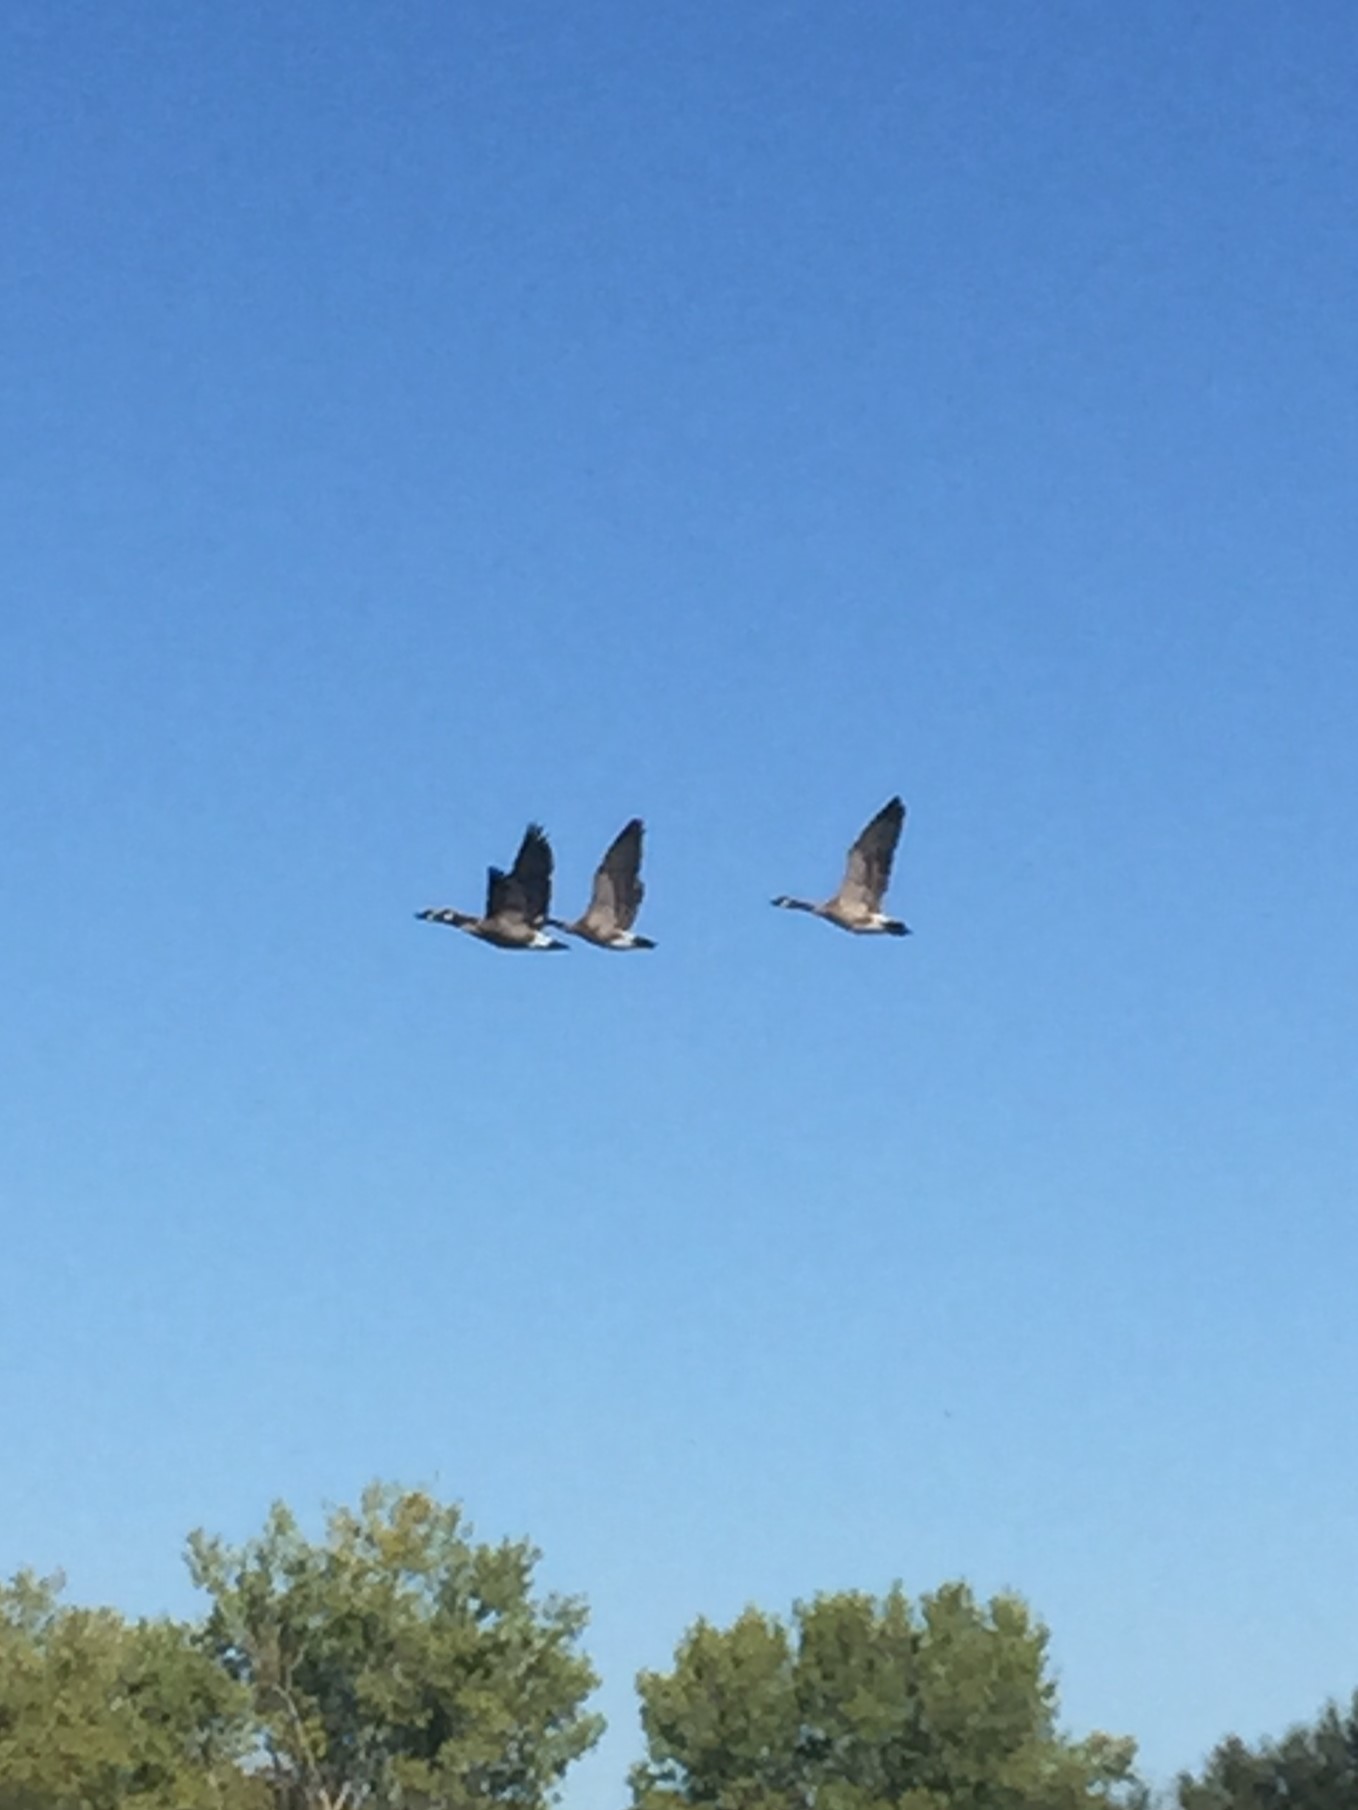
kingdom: Animalia
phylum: Chordata
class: Aves
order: Anseriformes
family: Anatidae
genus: Branta
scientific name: Branta canadensis
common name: Canada goose
